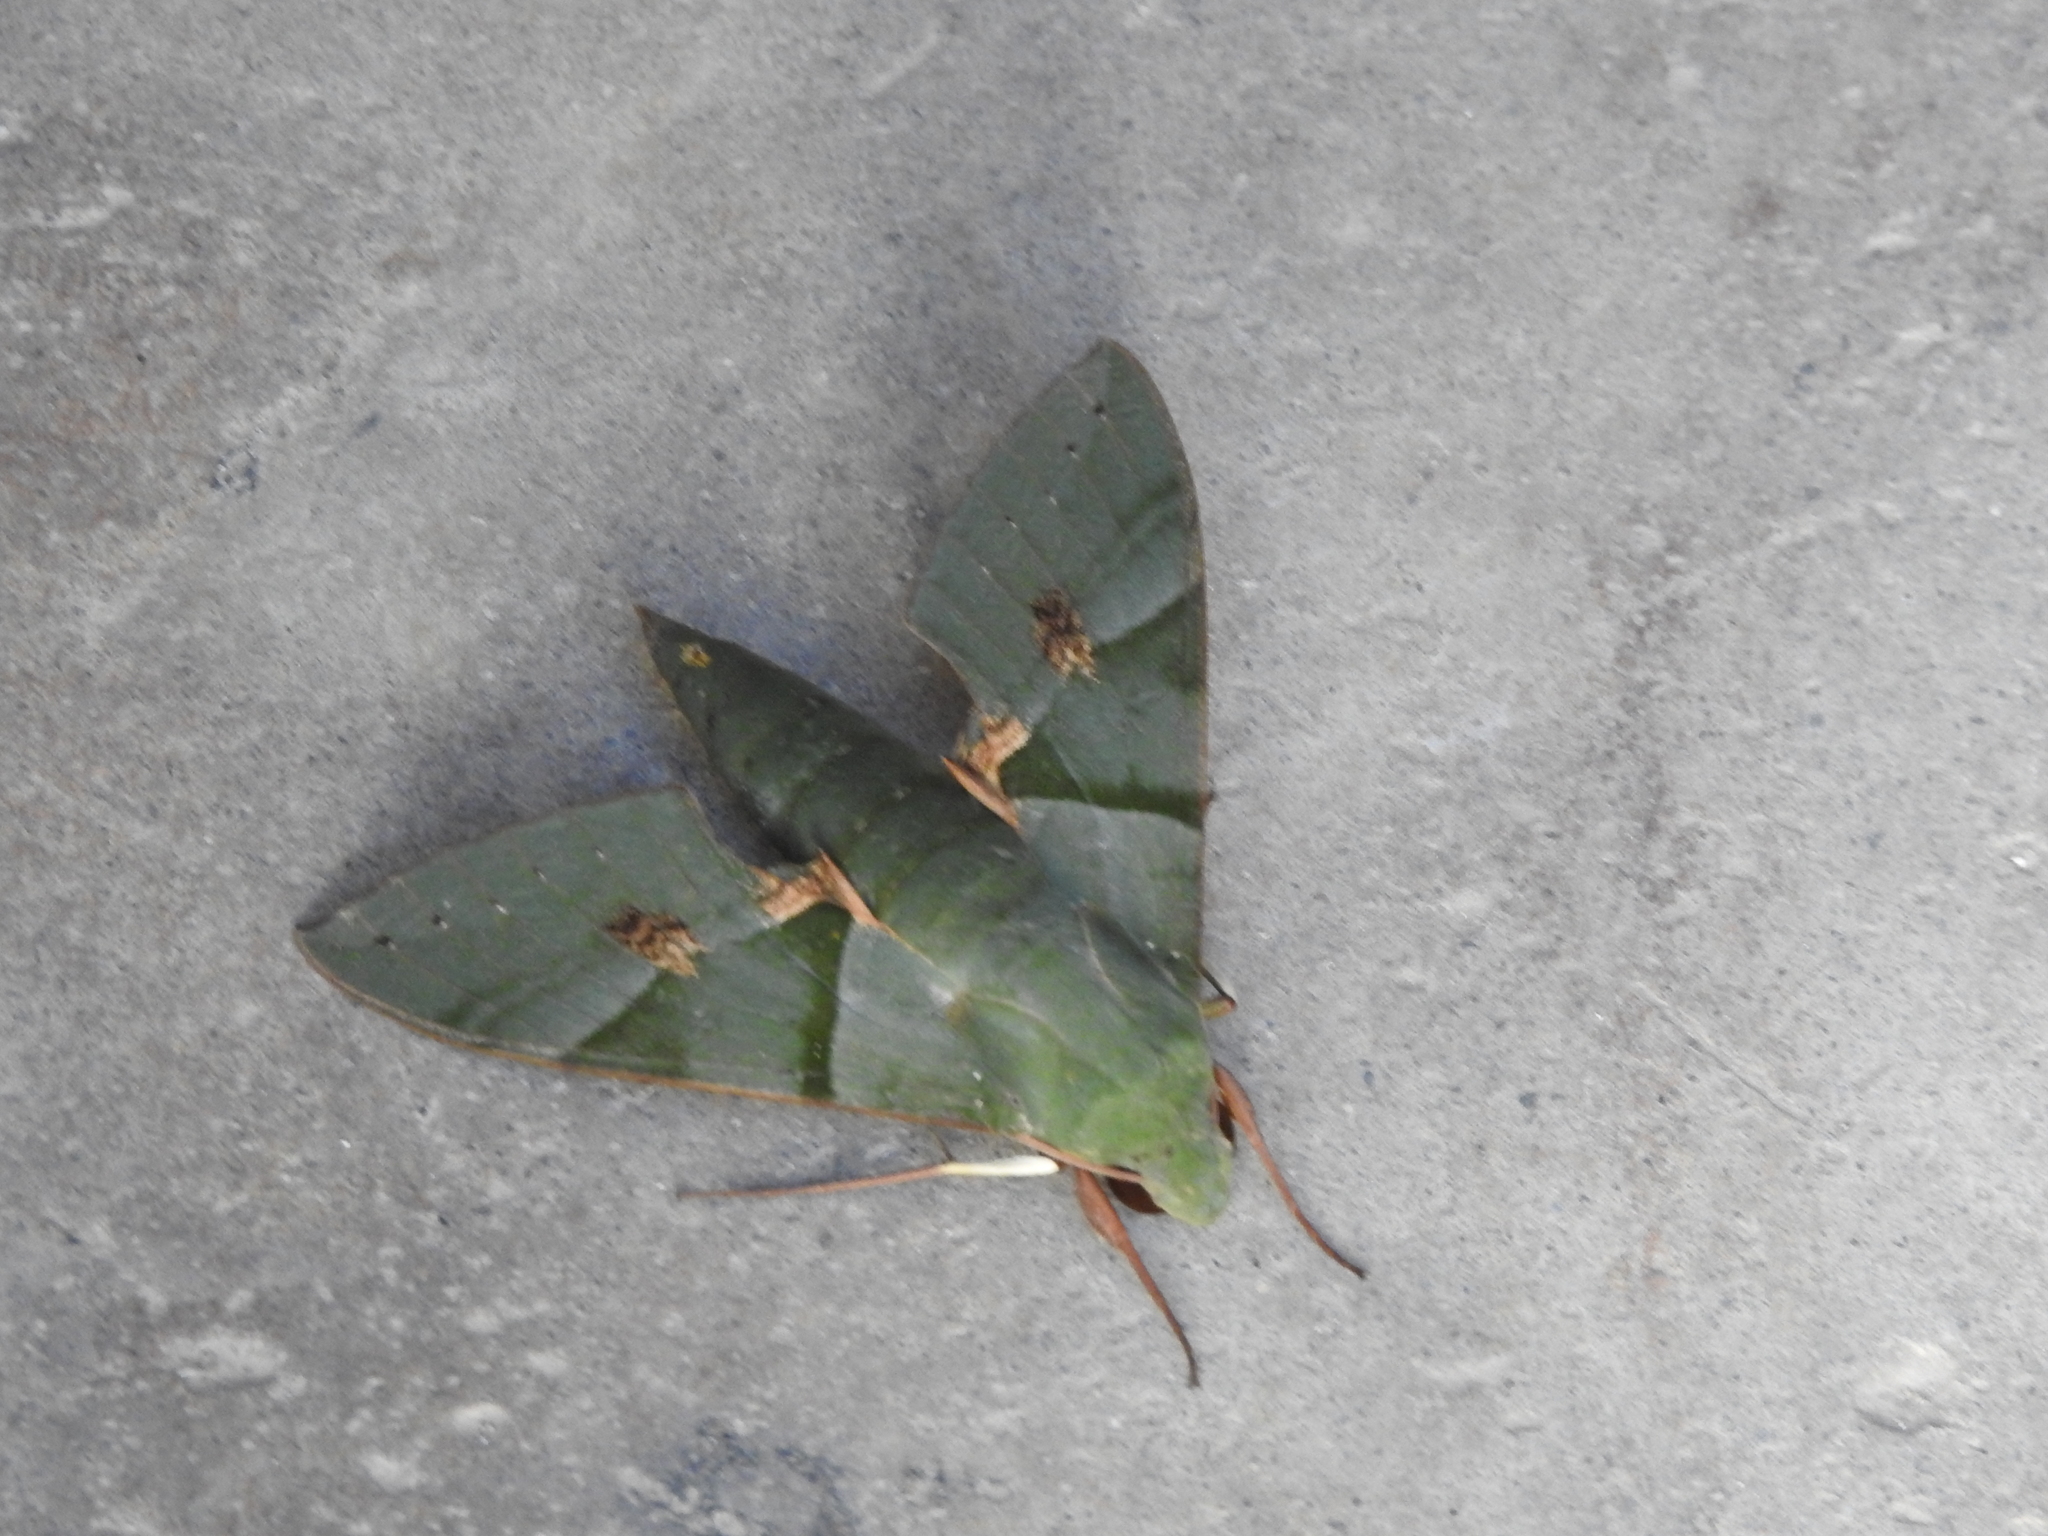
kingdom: Animalia
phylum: Arthropoda
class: Insecta
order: Lepidoptera
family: Sphingidae
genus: Eumorpha
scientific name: Eumorpha labruscae
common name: Gaudy sphinx
